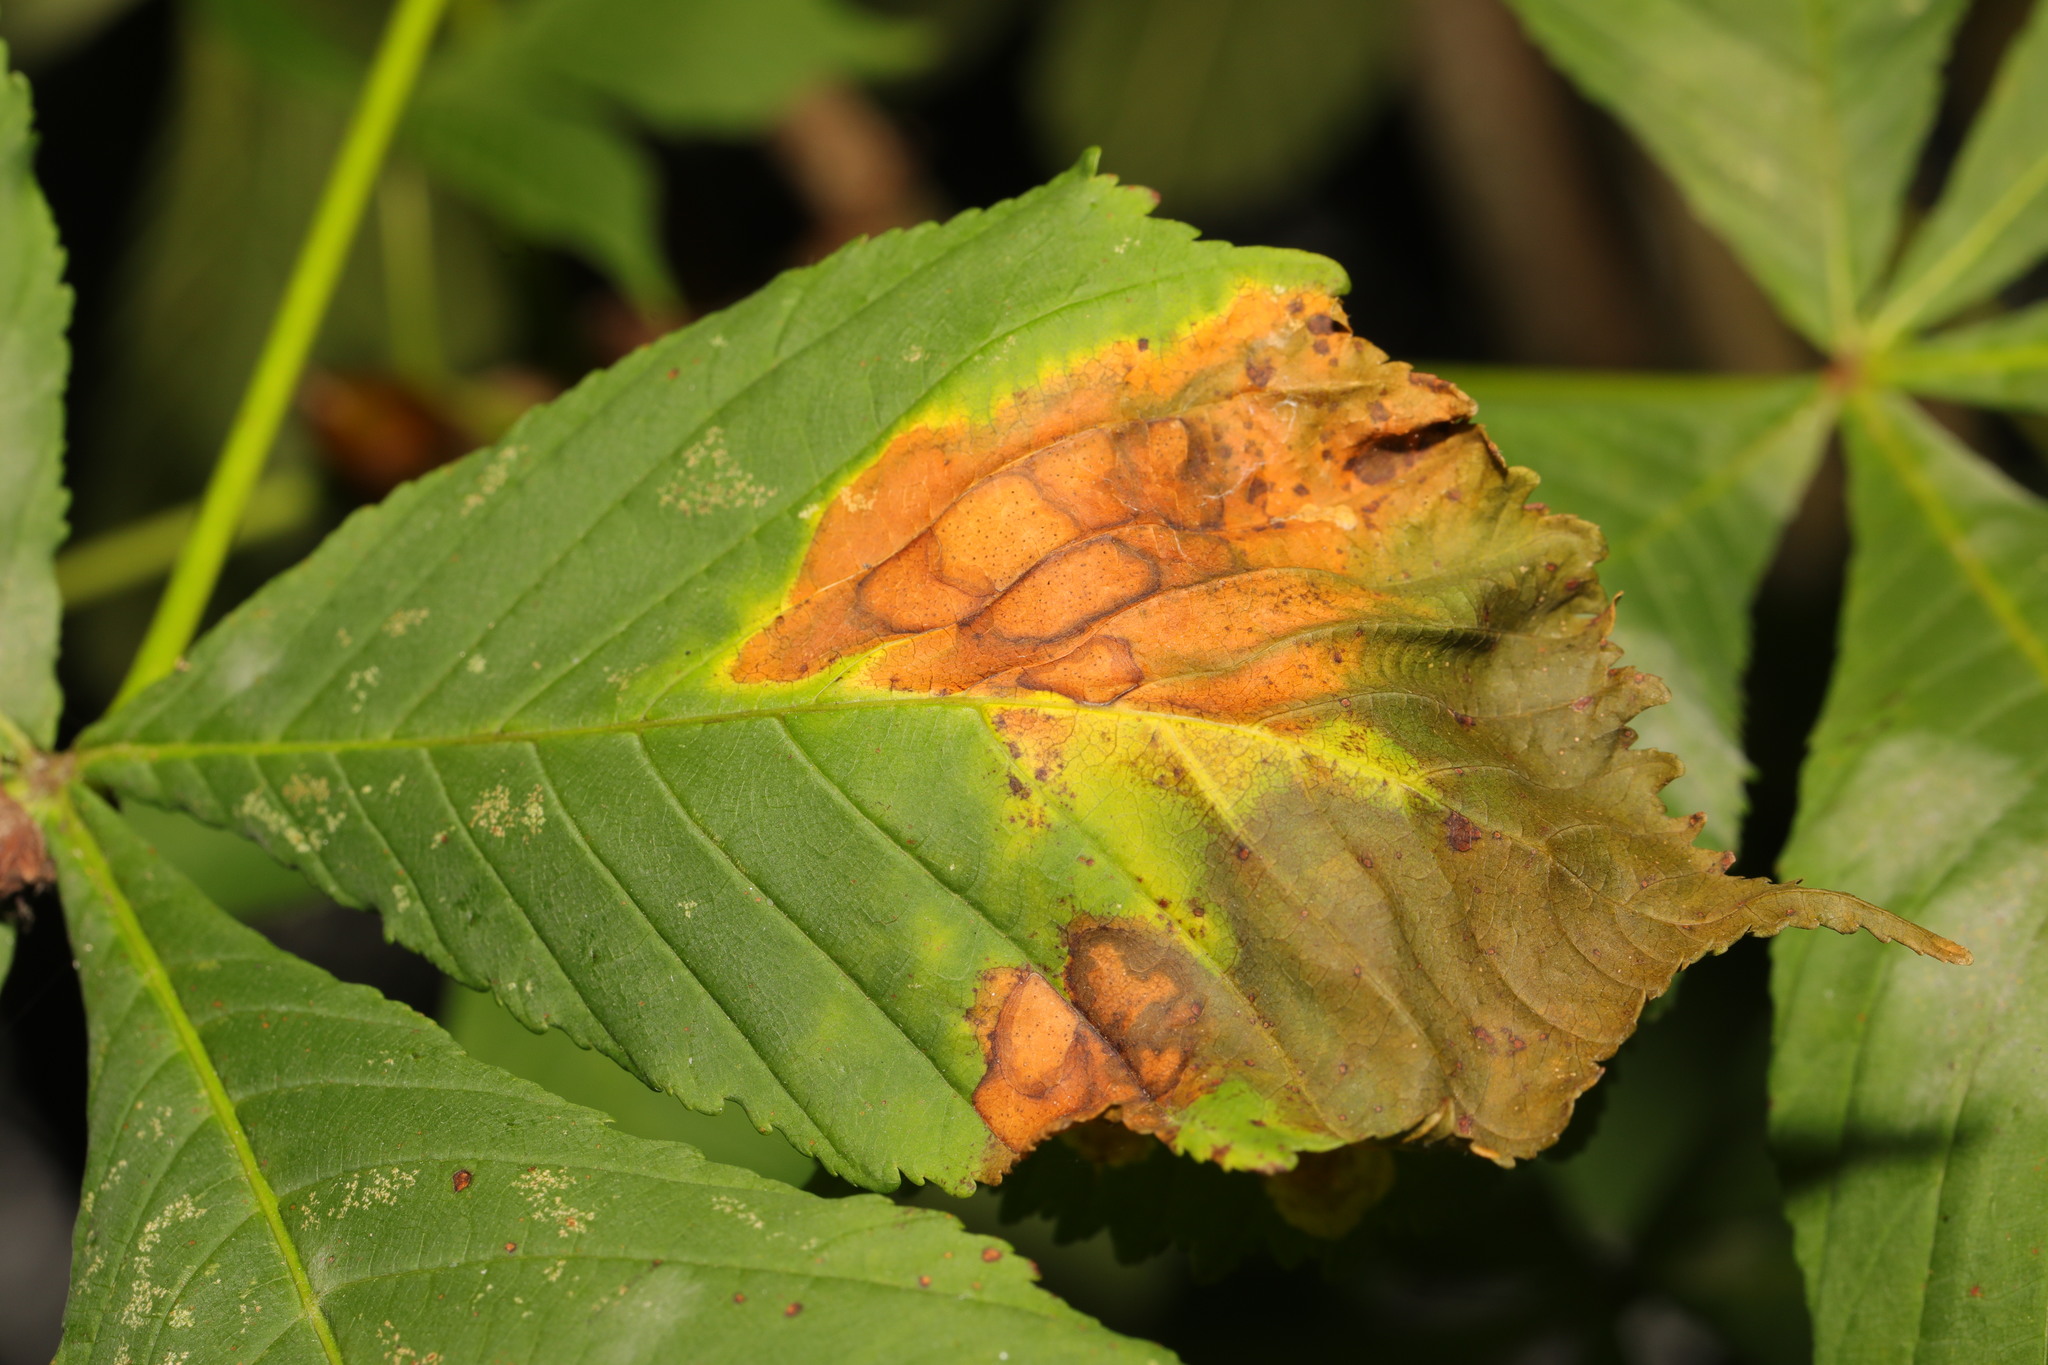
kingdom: Fungi
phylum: Ascomycota
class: Dothideomycetes
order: Botryosphaeriales
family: Phyllostictaceae
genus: Phyllosticta
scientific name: Phyllosticta paviae
